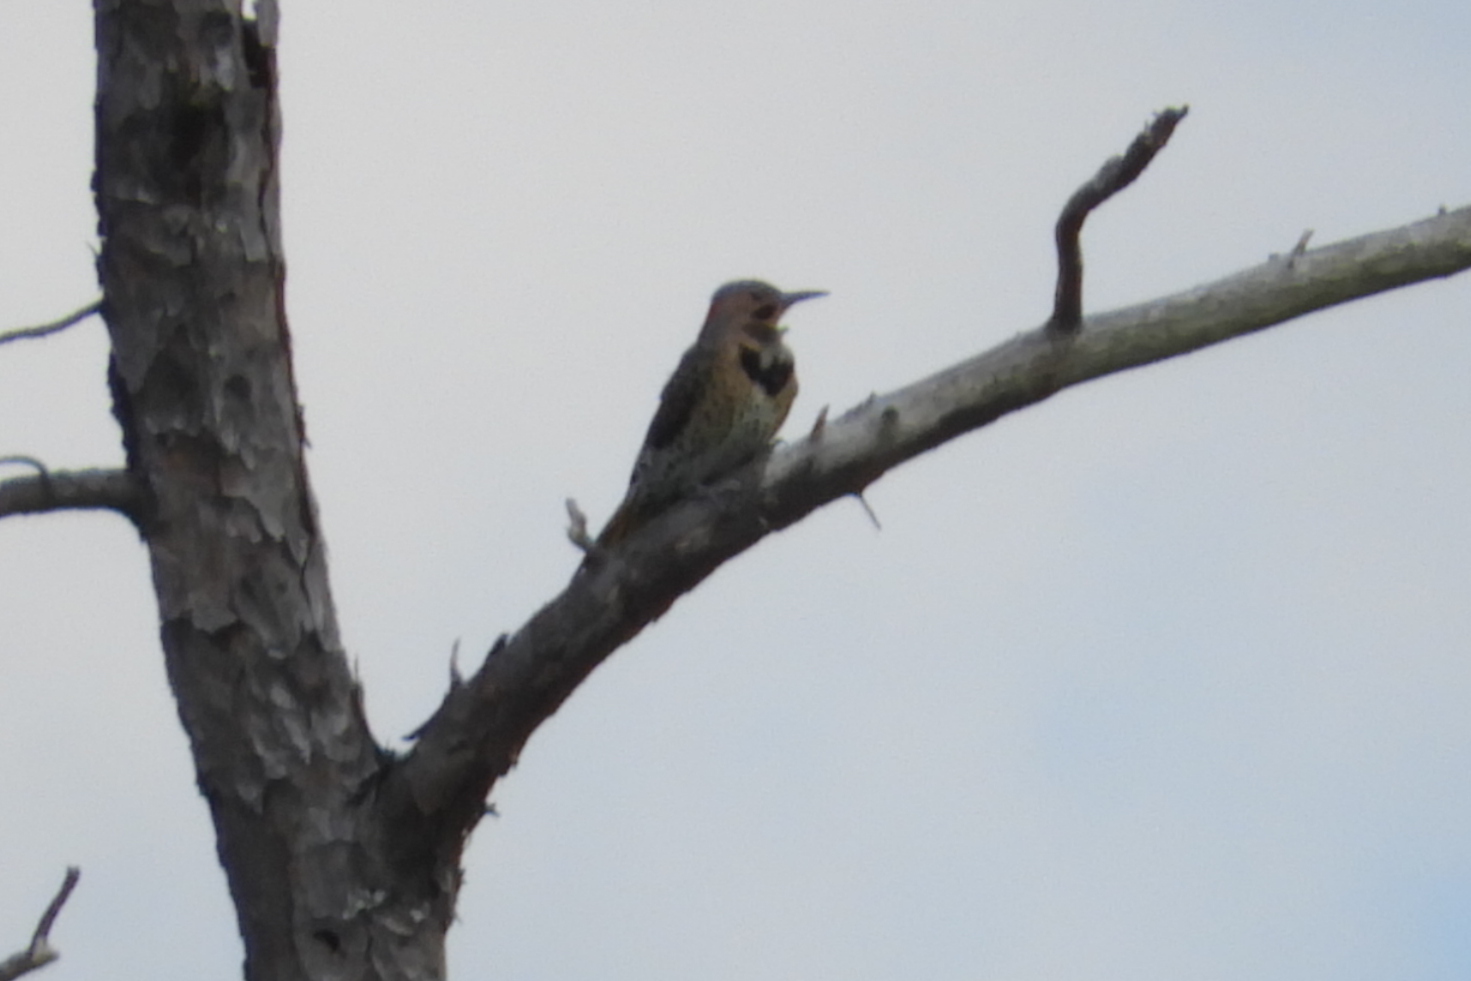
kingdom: Animalia
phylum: Chordata
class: Aves
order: Piciformes
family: Picidae
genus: Colaptes
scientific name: Colaptes auratus
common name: Northern flicker
